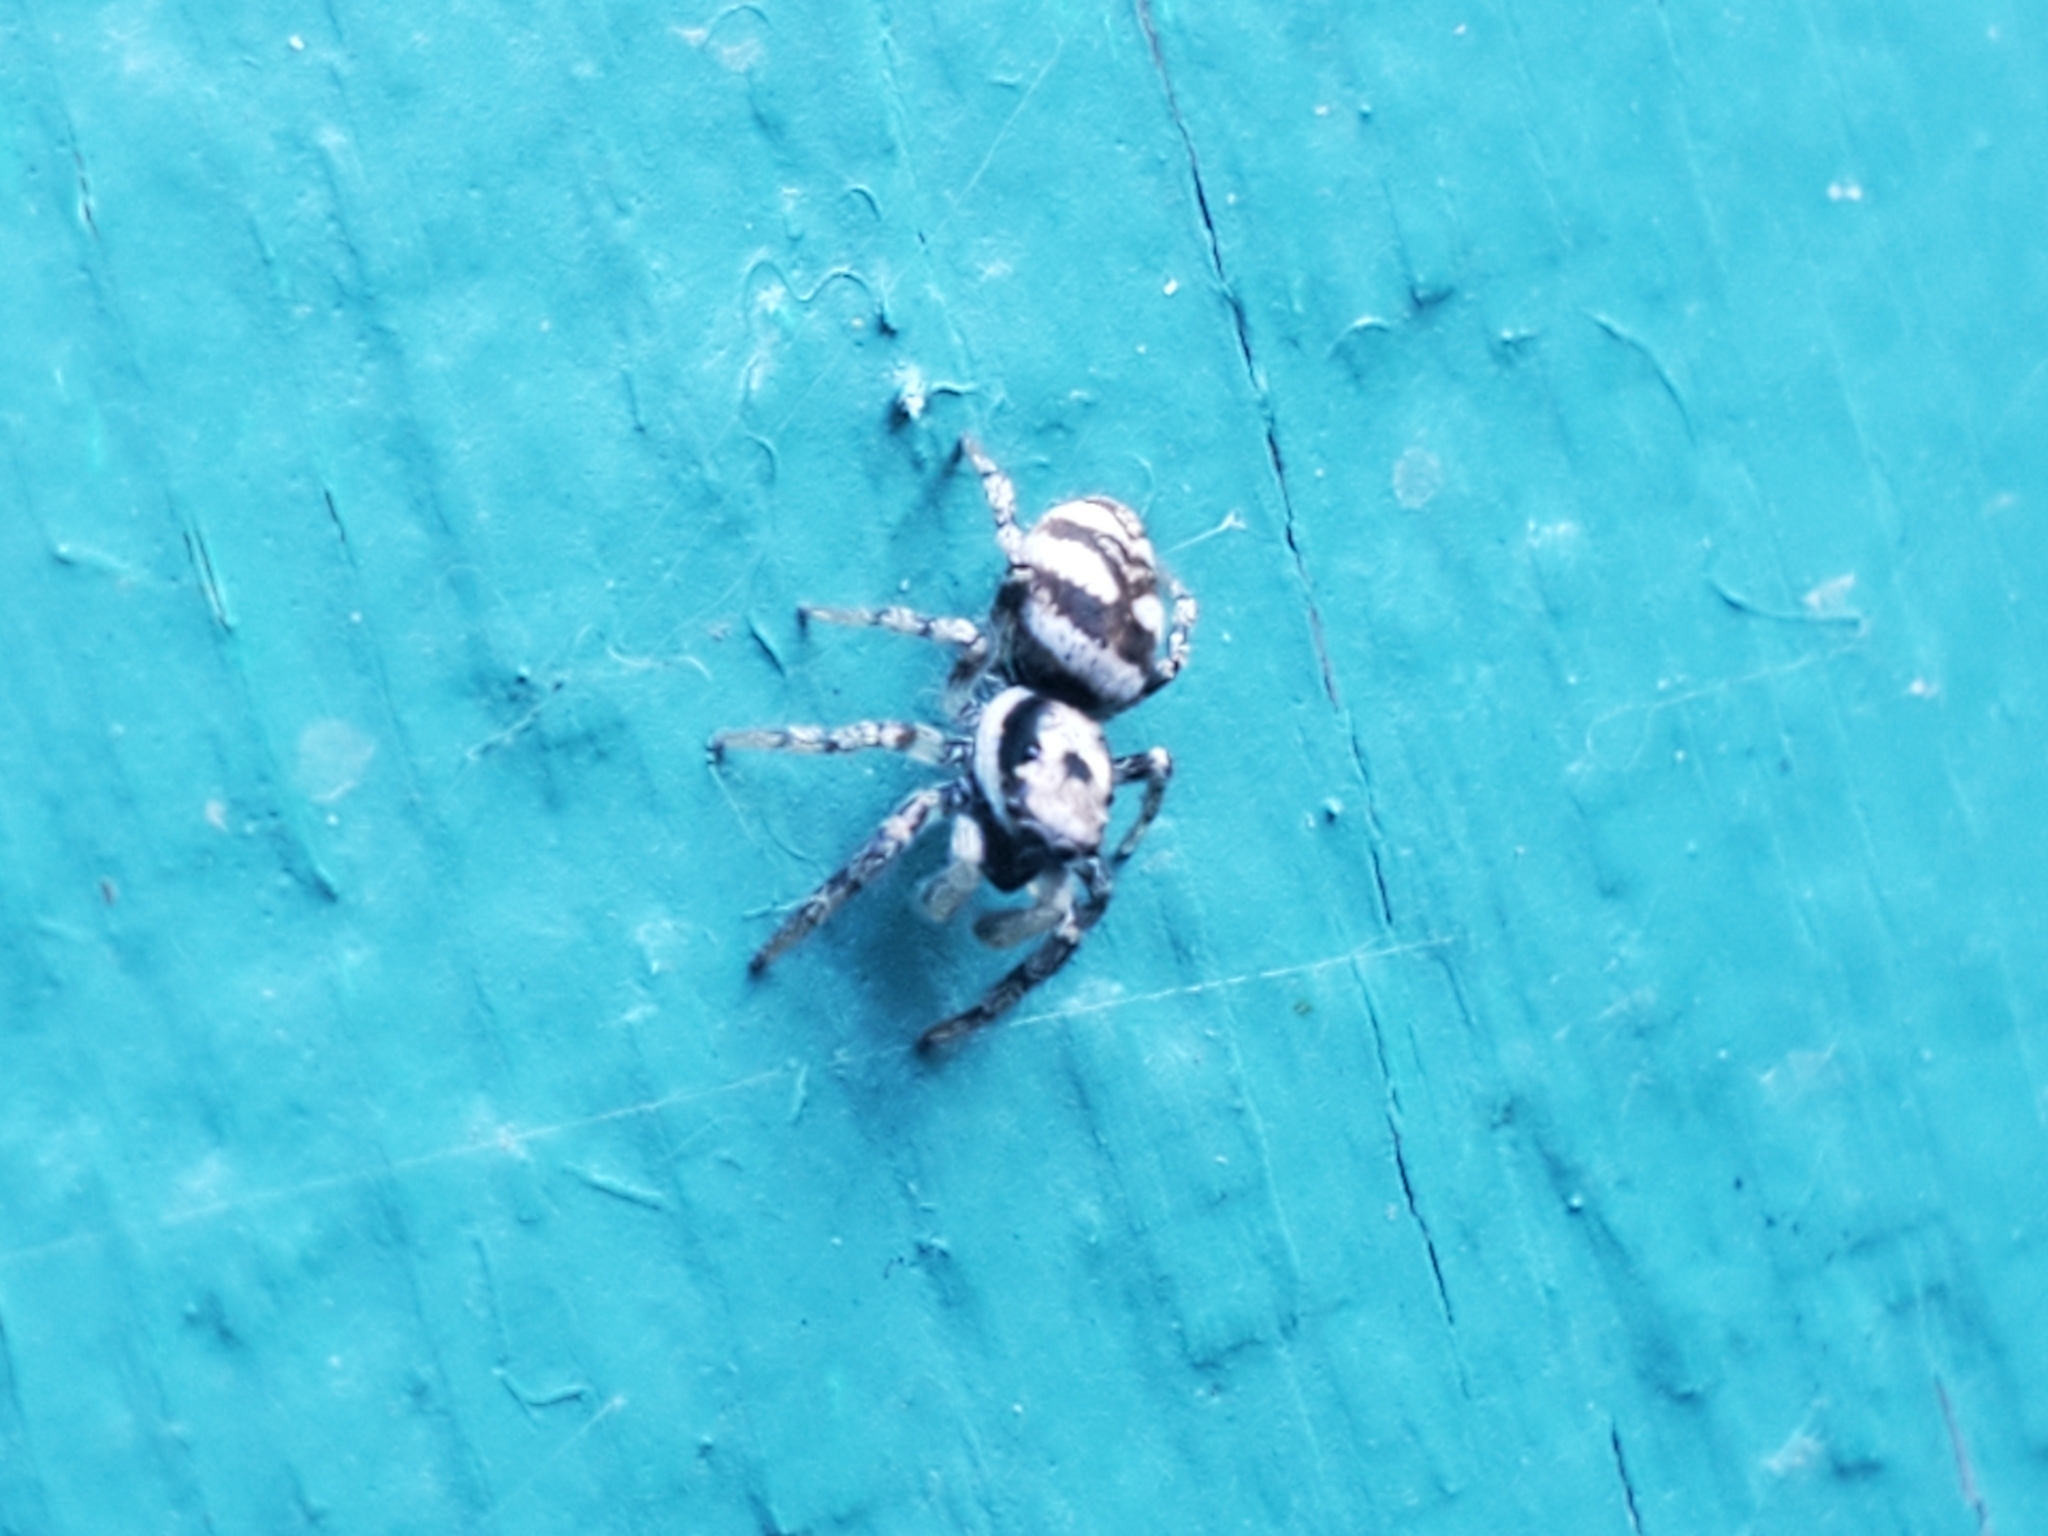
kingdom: Animalia
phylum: Arthropoda
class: Arachnida
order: Araneae
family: Salticidae
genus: Salticus
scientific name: Salticus scenicus
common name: Zebra jumper
